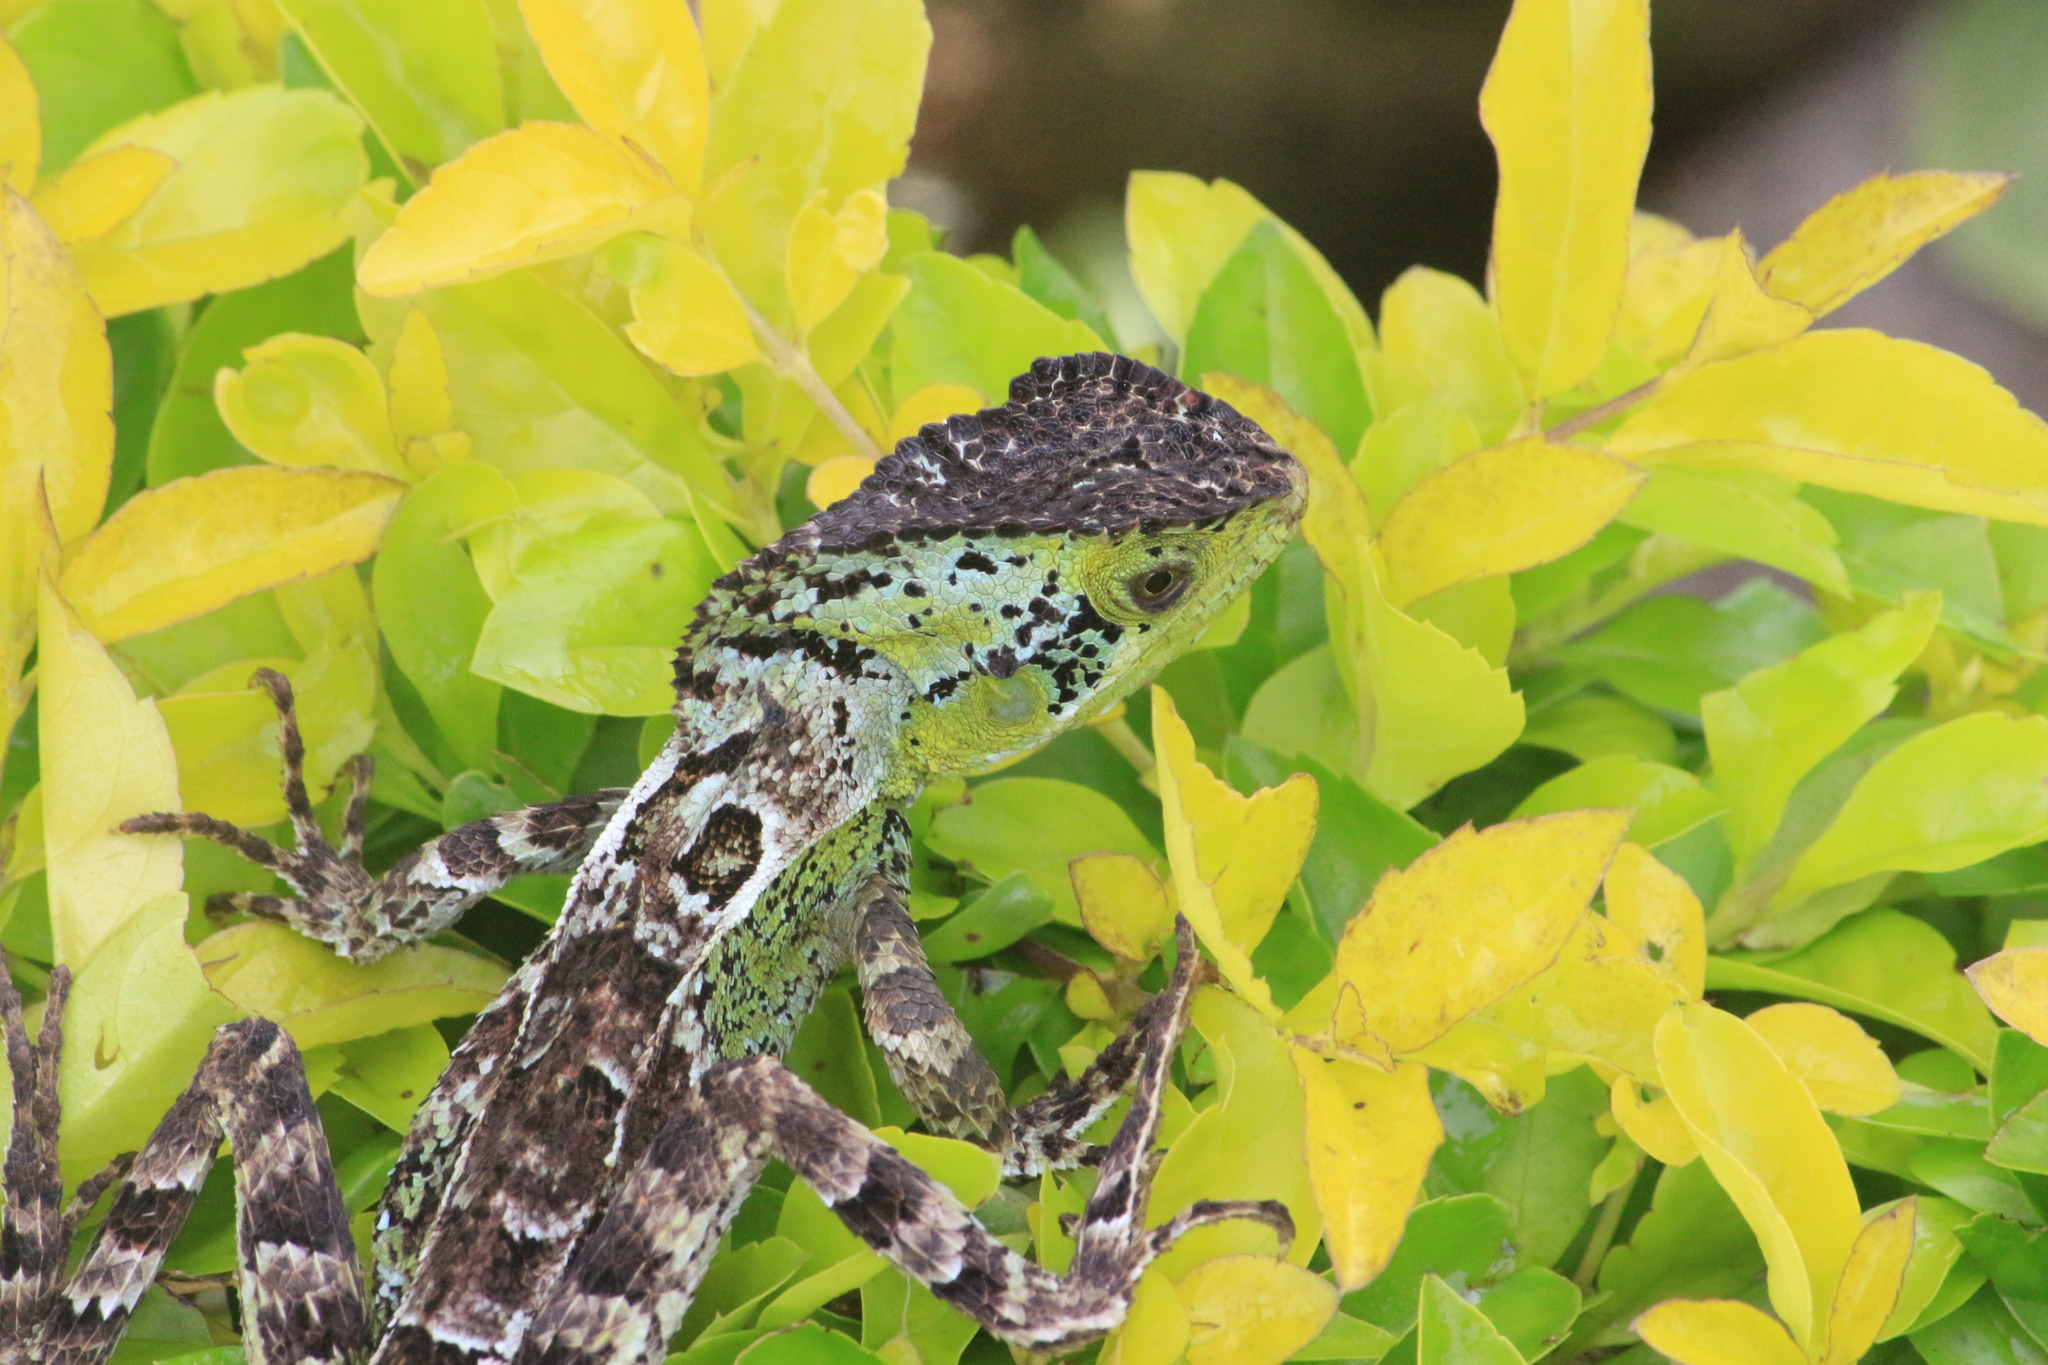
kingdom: Animalia
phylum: Chordata
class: Squamata
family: Corytophanidae
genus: Corytophanes
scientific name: Corytophanes percarinatus
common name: Keeled helmeted iguana
